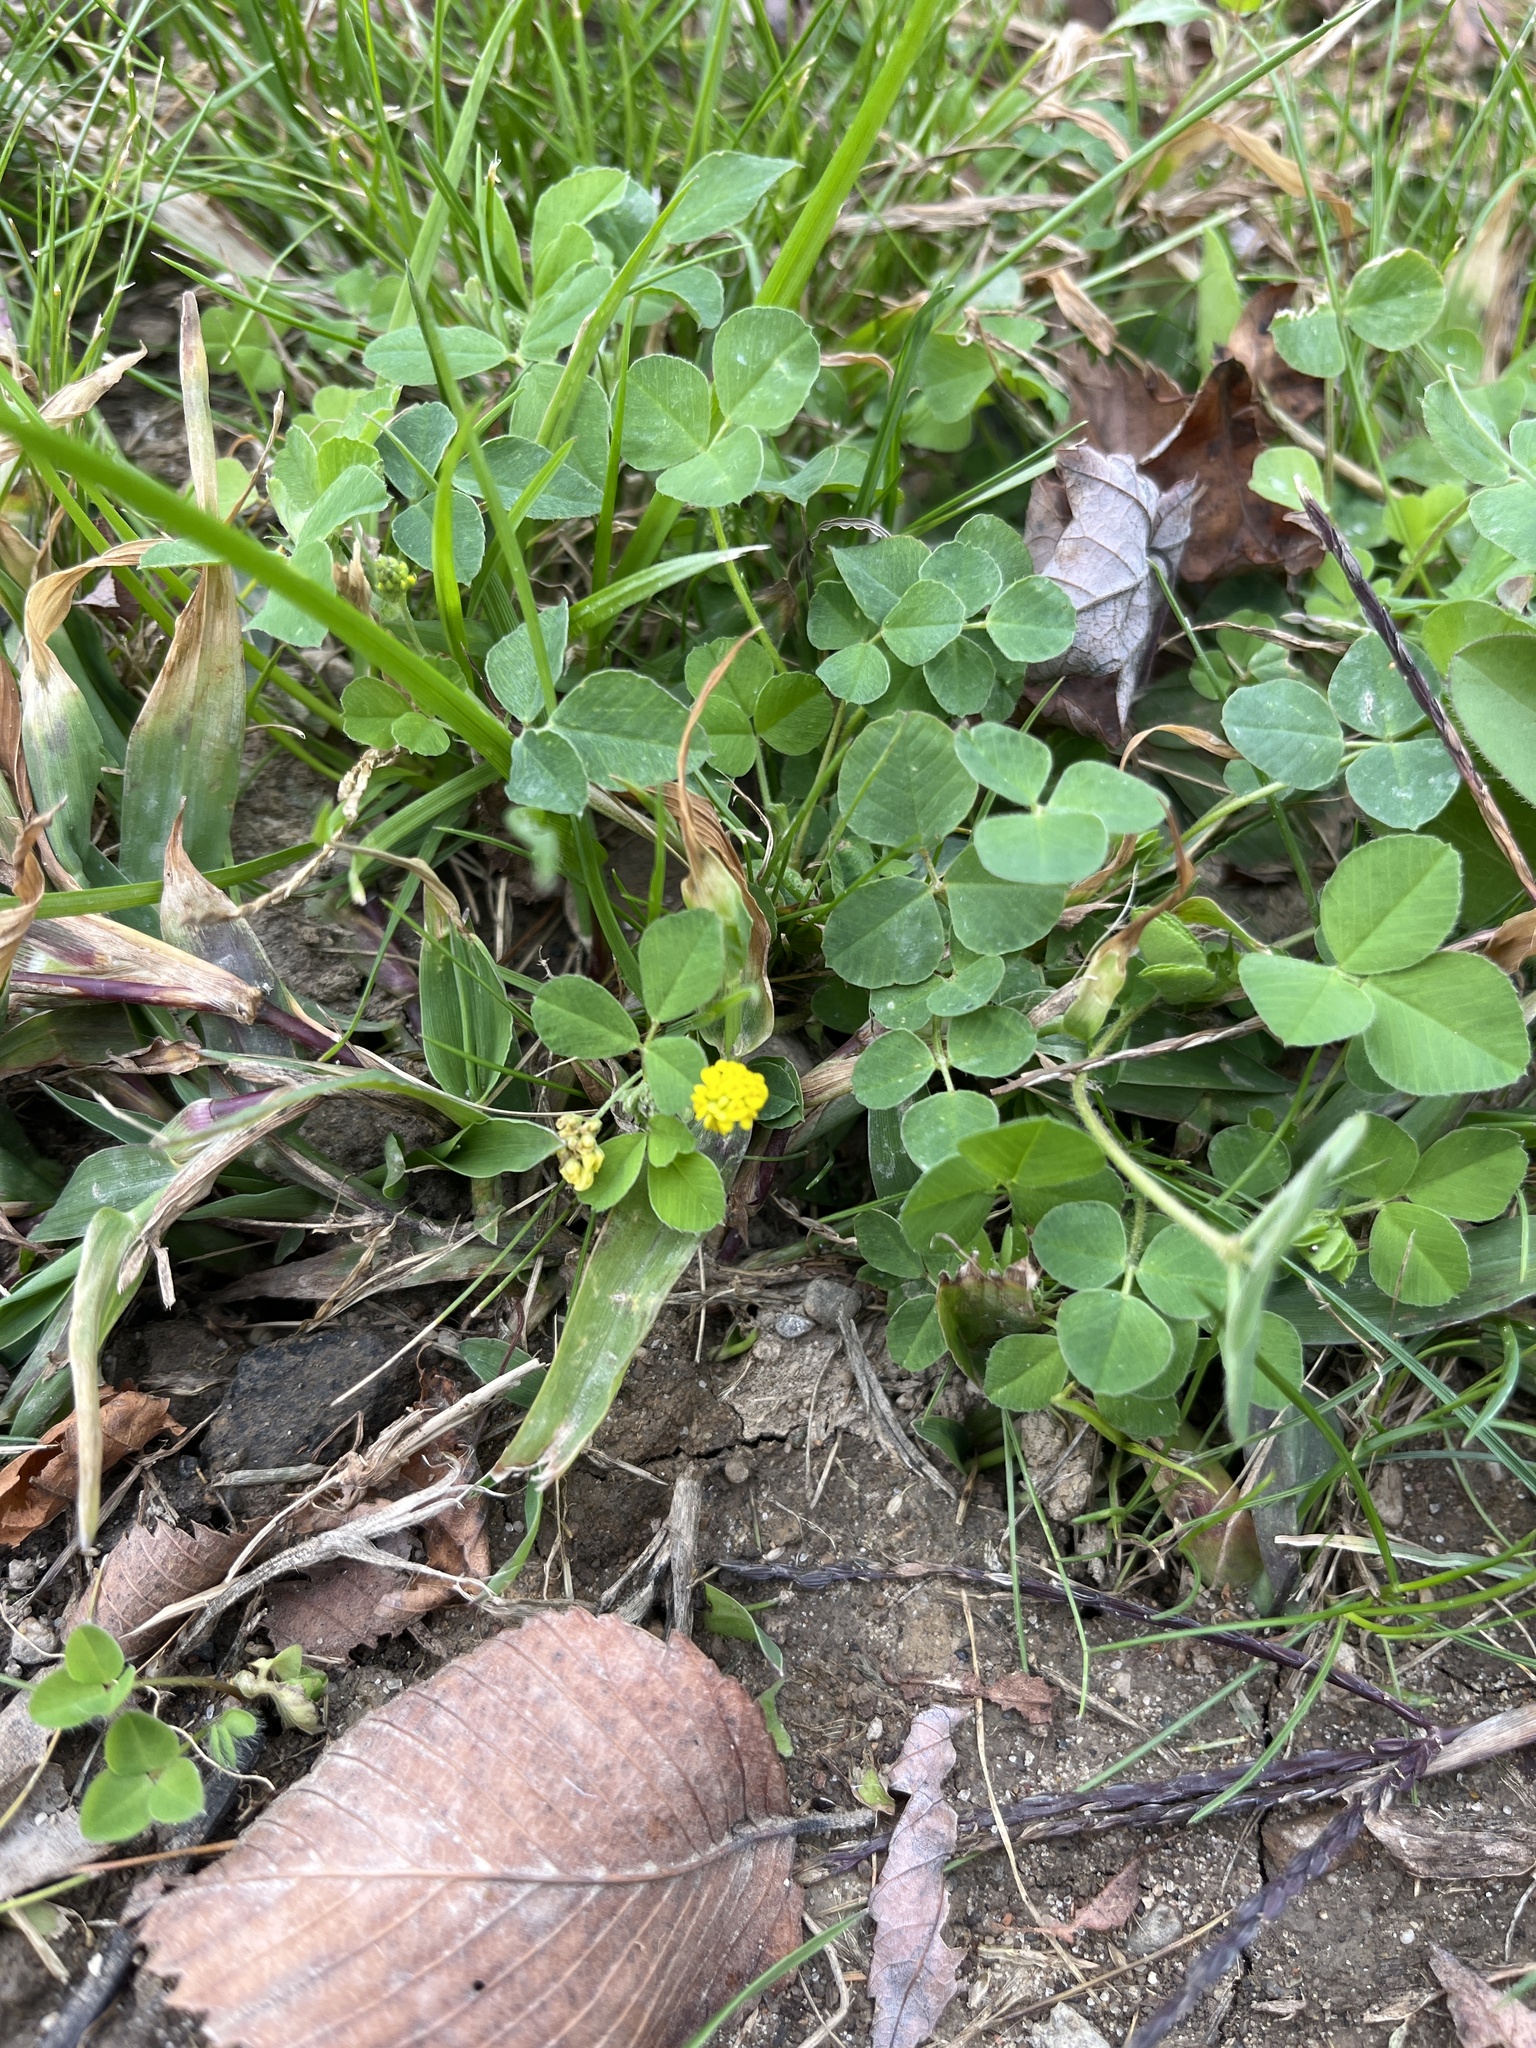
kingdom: Plantae
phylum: Tracheophyta
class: Magnoliopsida
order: Fabales
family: Fabaceae
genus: Medicago
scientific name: Medicago lupulina
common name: Black medick
